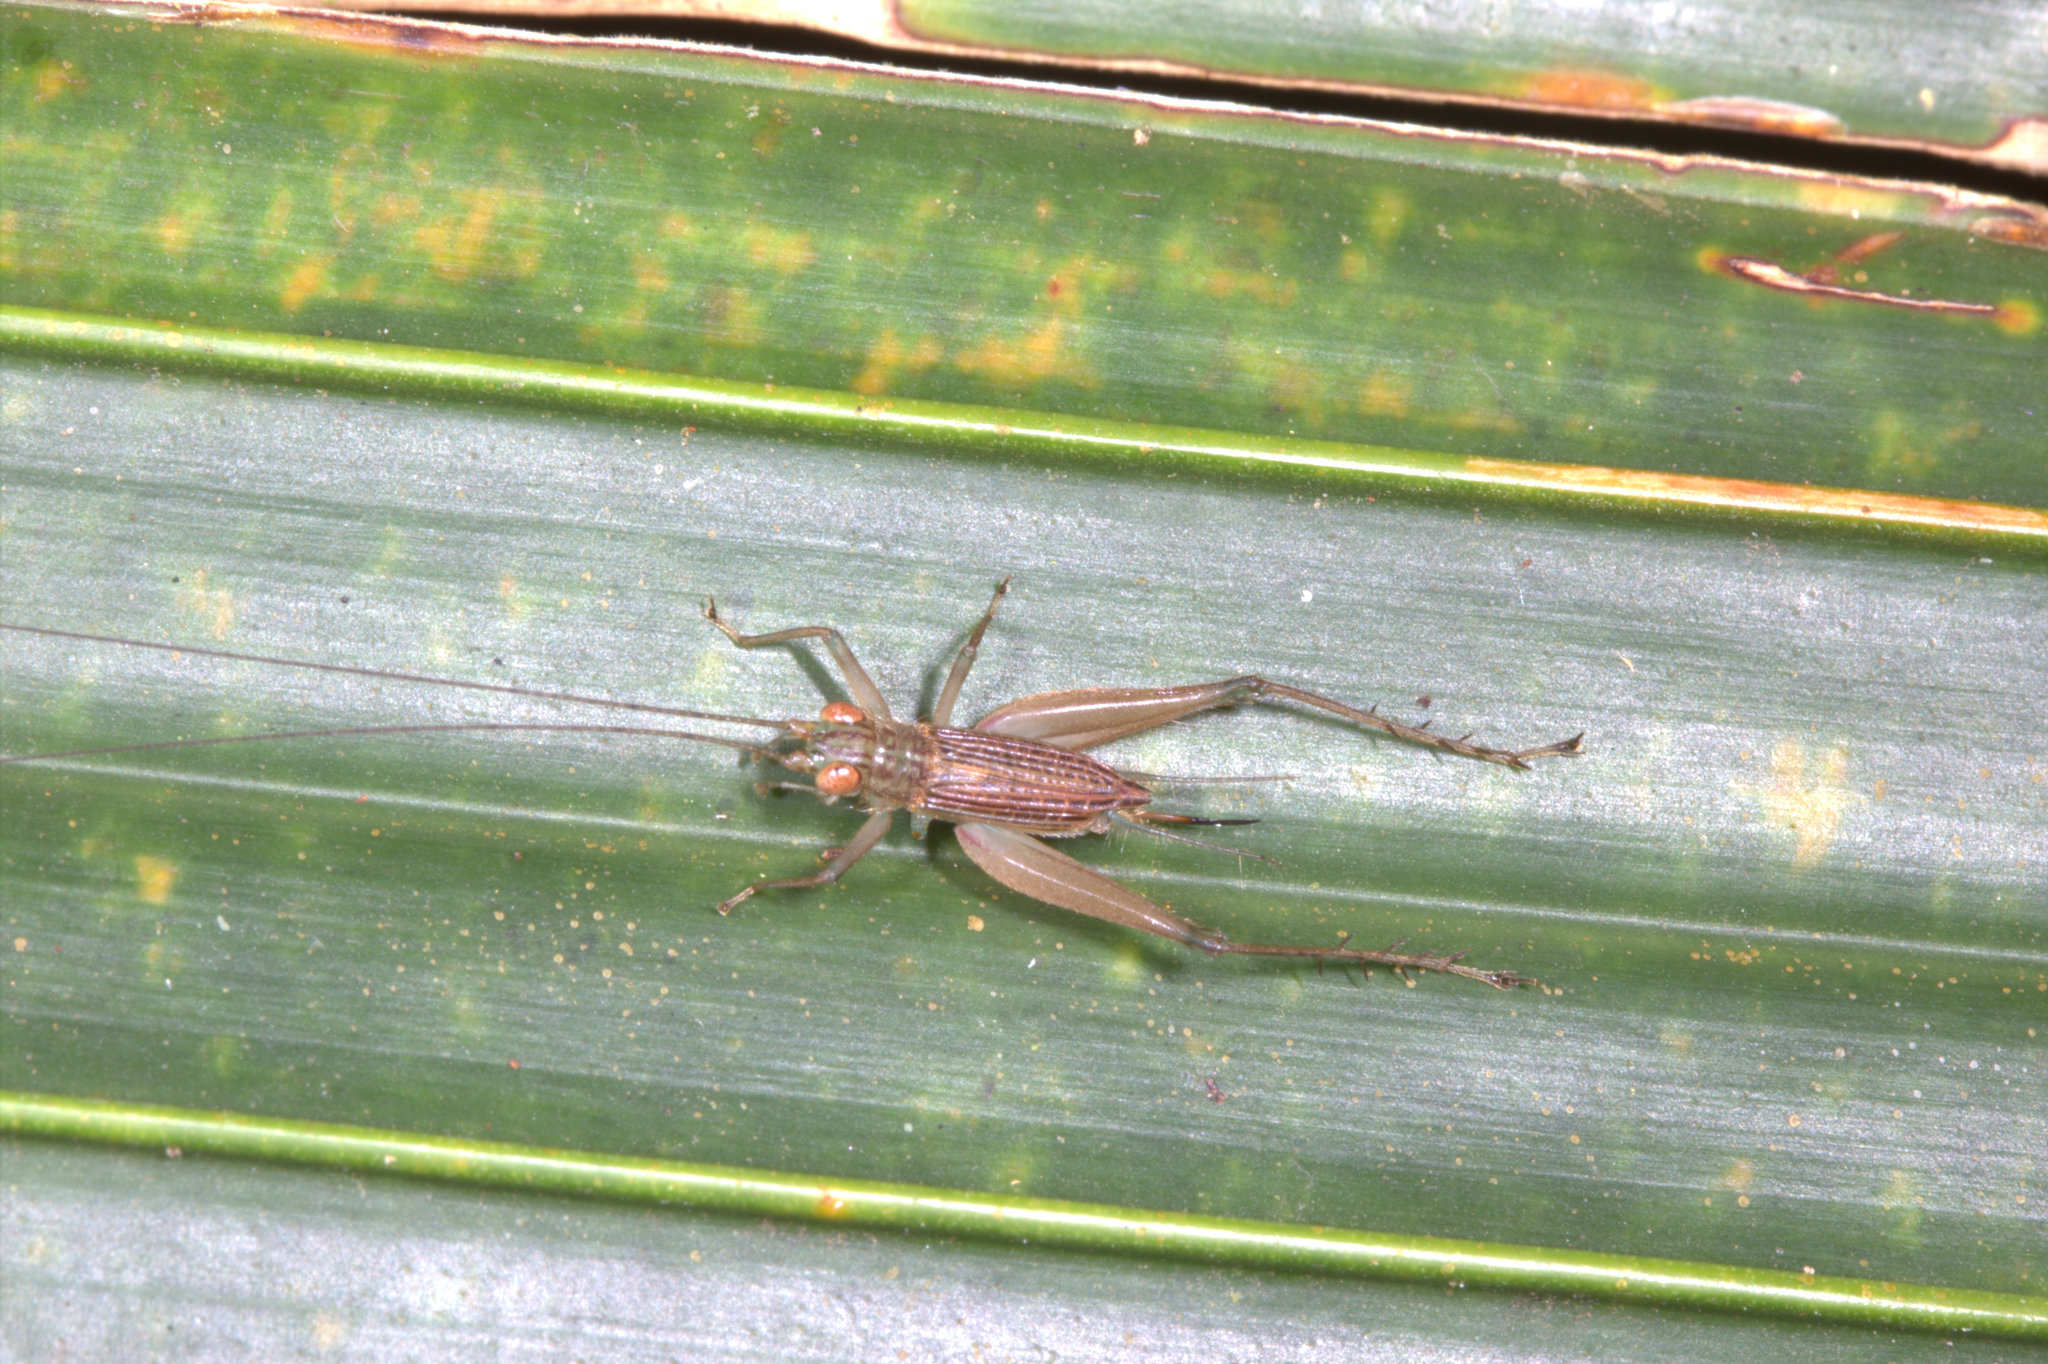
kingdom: Animalia
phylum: Arthropoda
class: Insecta
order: Orthoptera
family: Trigonidiidae
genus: Metioche
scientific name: Metioche bolivari
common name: Seychelles palm cricket
